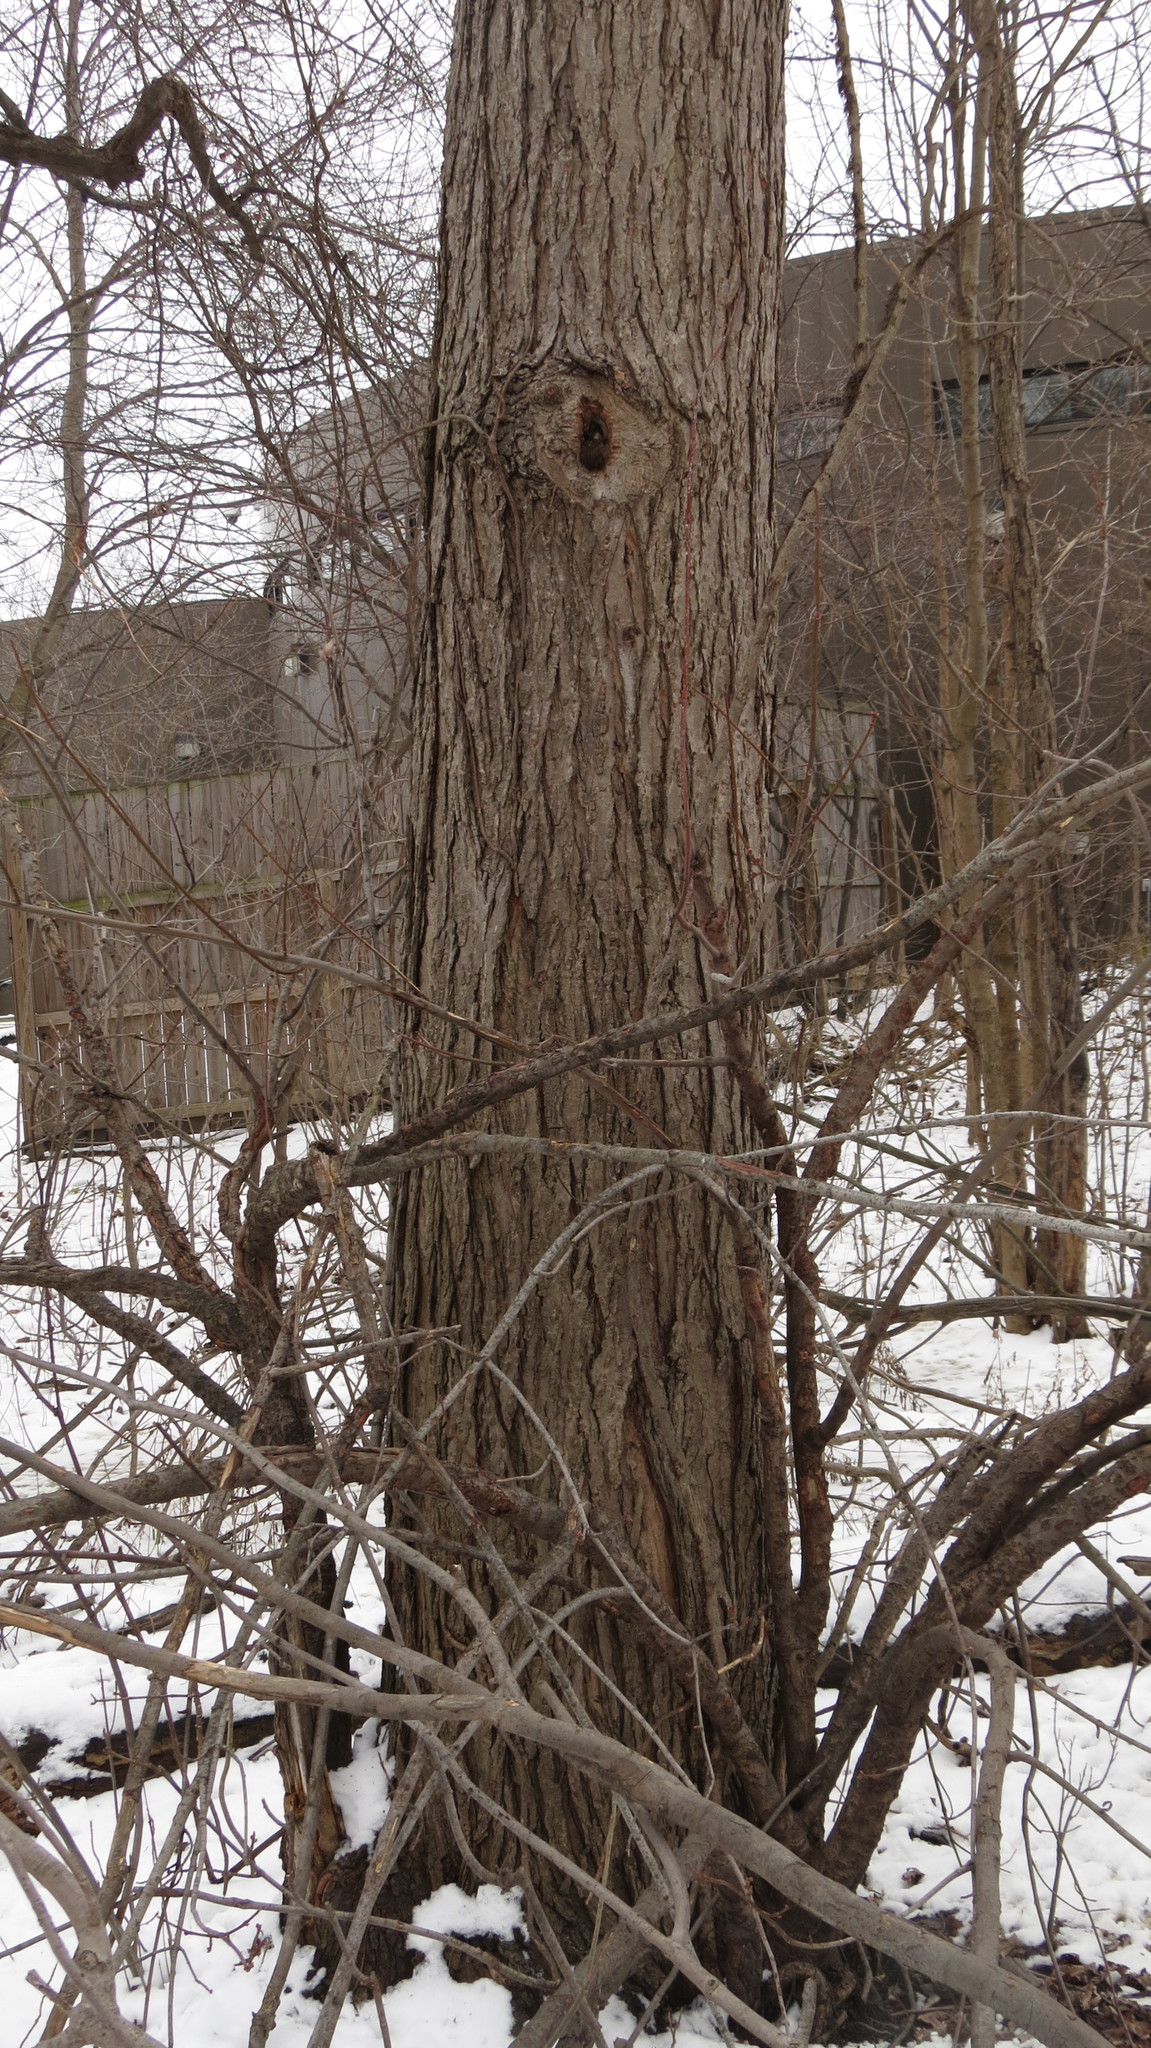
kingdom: Plantae
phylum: Tracheophyta
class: Magnoliopsida
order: Sapindales
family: Sapindaceae
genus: Acer
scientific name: Acer saccharinum
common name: Silver maple
